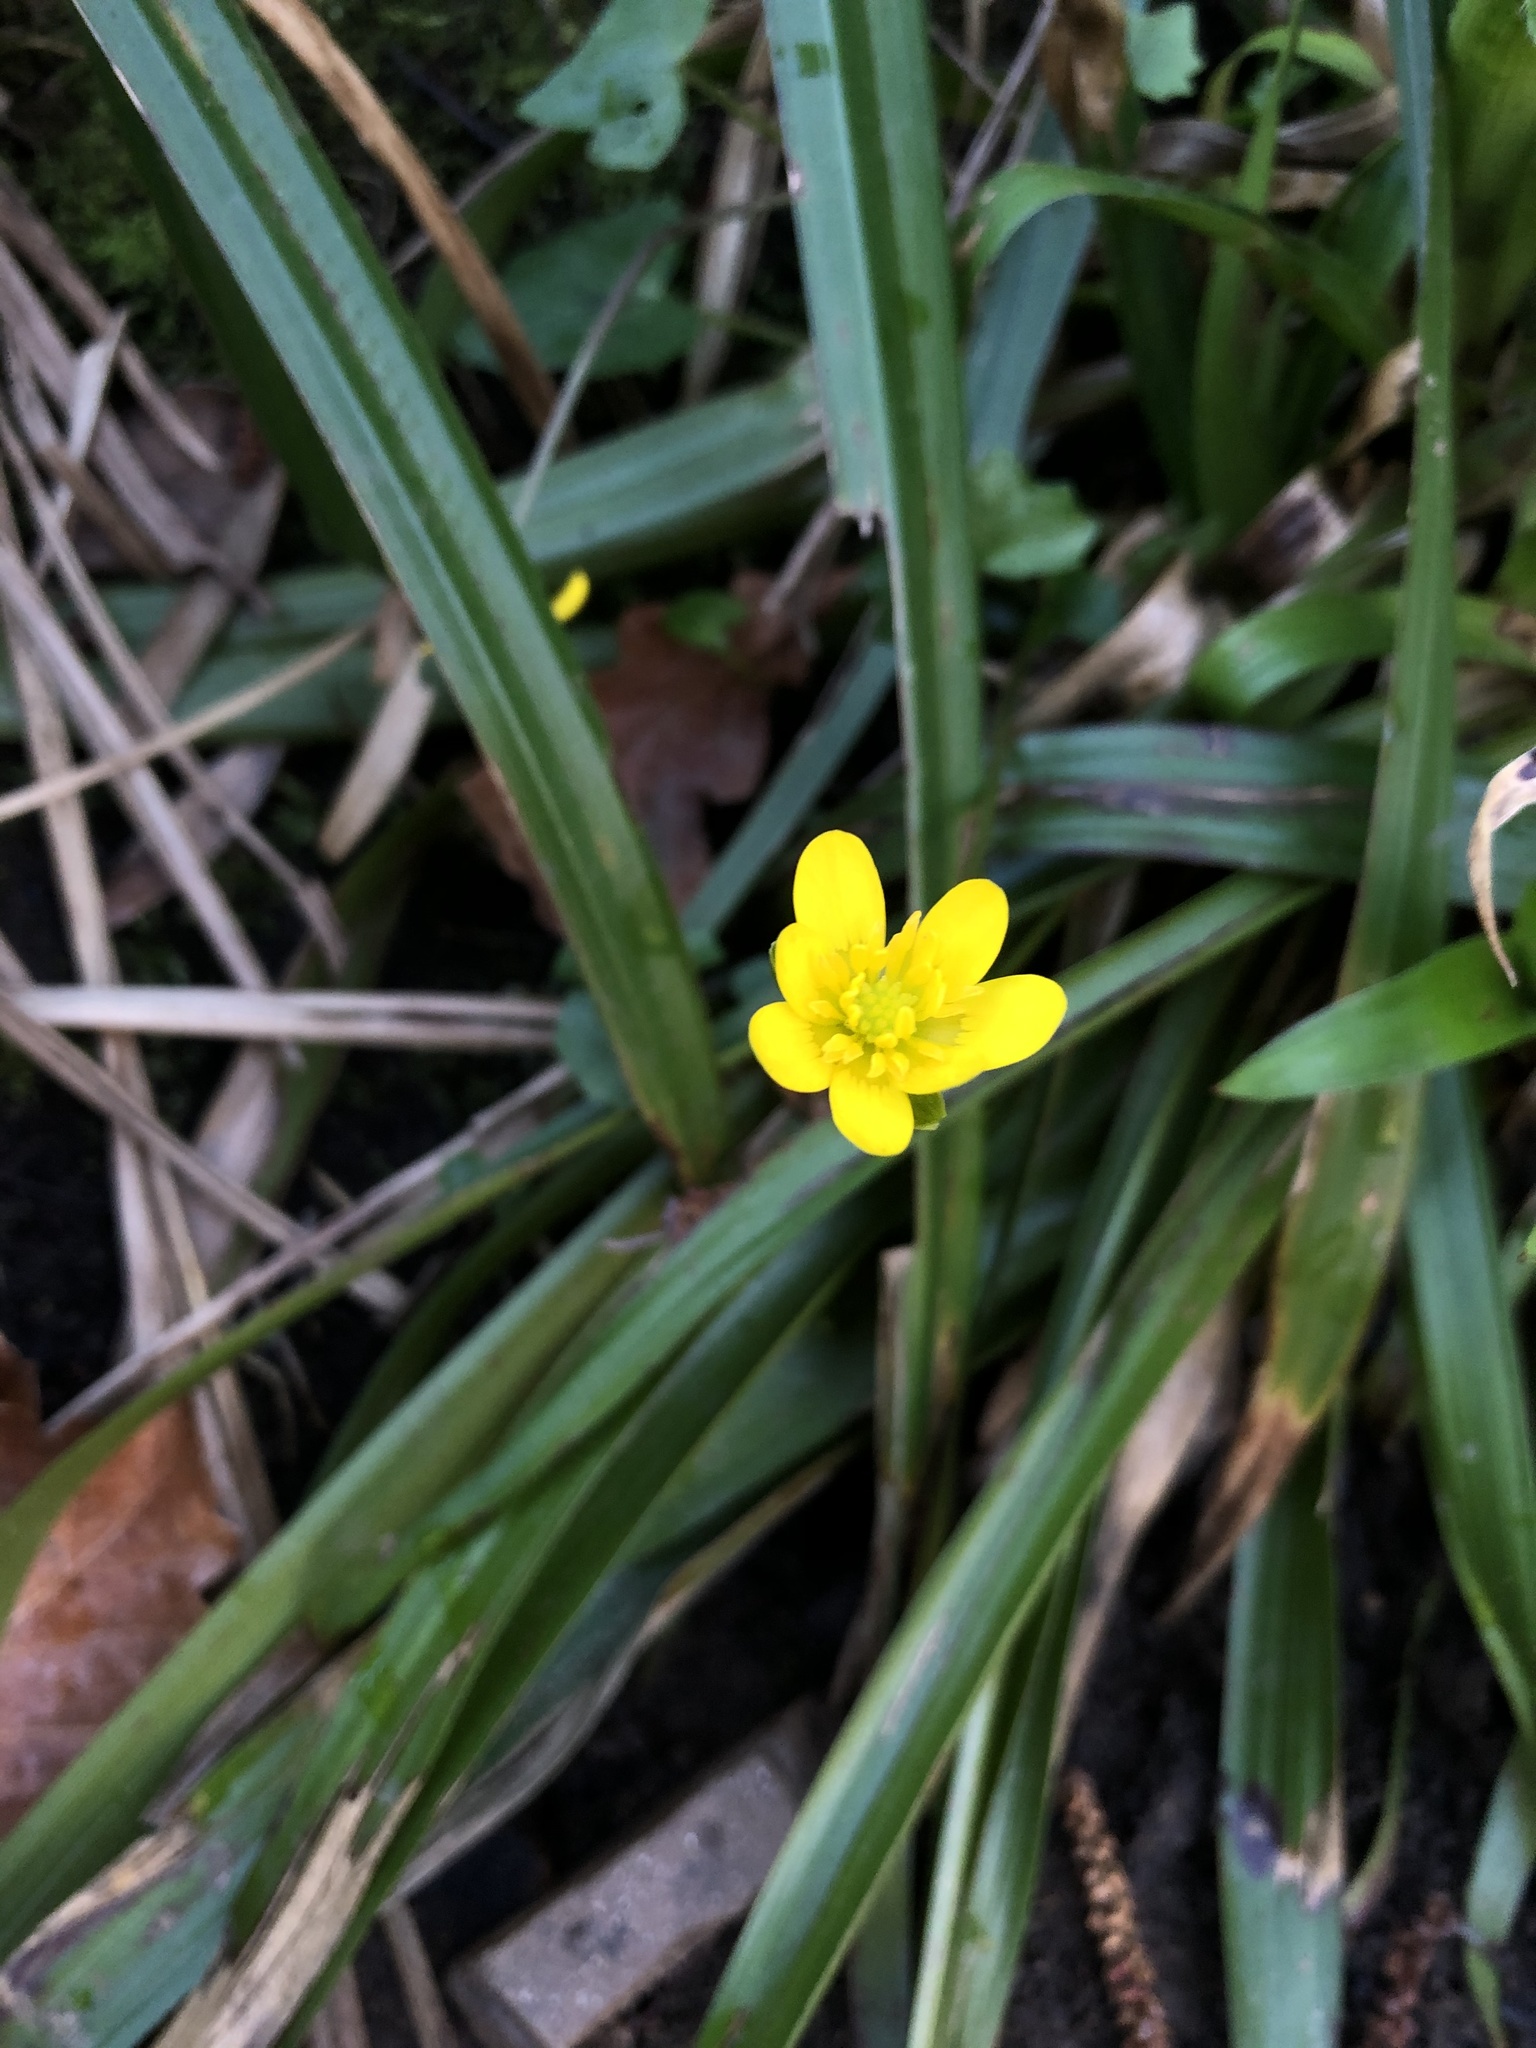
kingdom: Plantae
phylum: Tracheophyta
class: Magnoliopsida
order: Ranunculales
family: Ranunculaceae
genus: Ficaria
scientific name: Ficaria verna
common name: Lesser celandine
